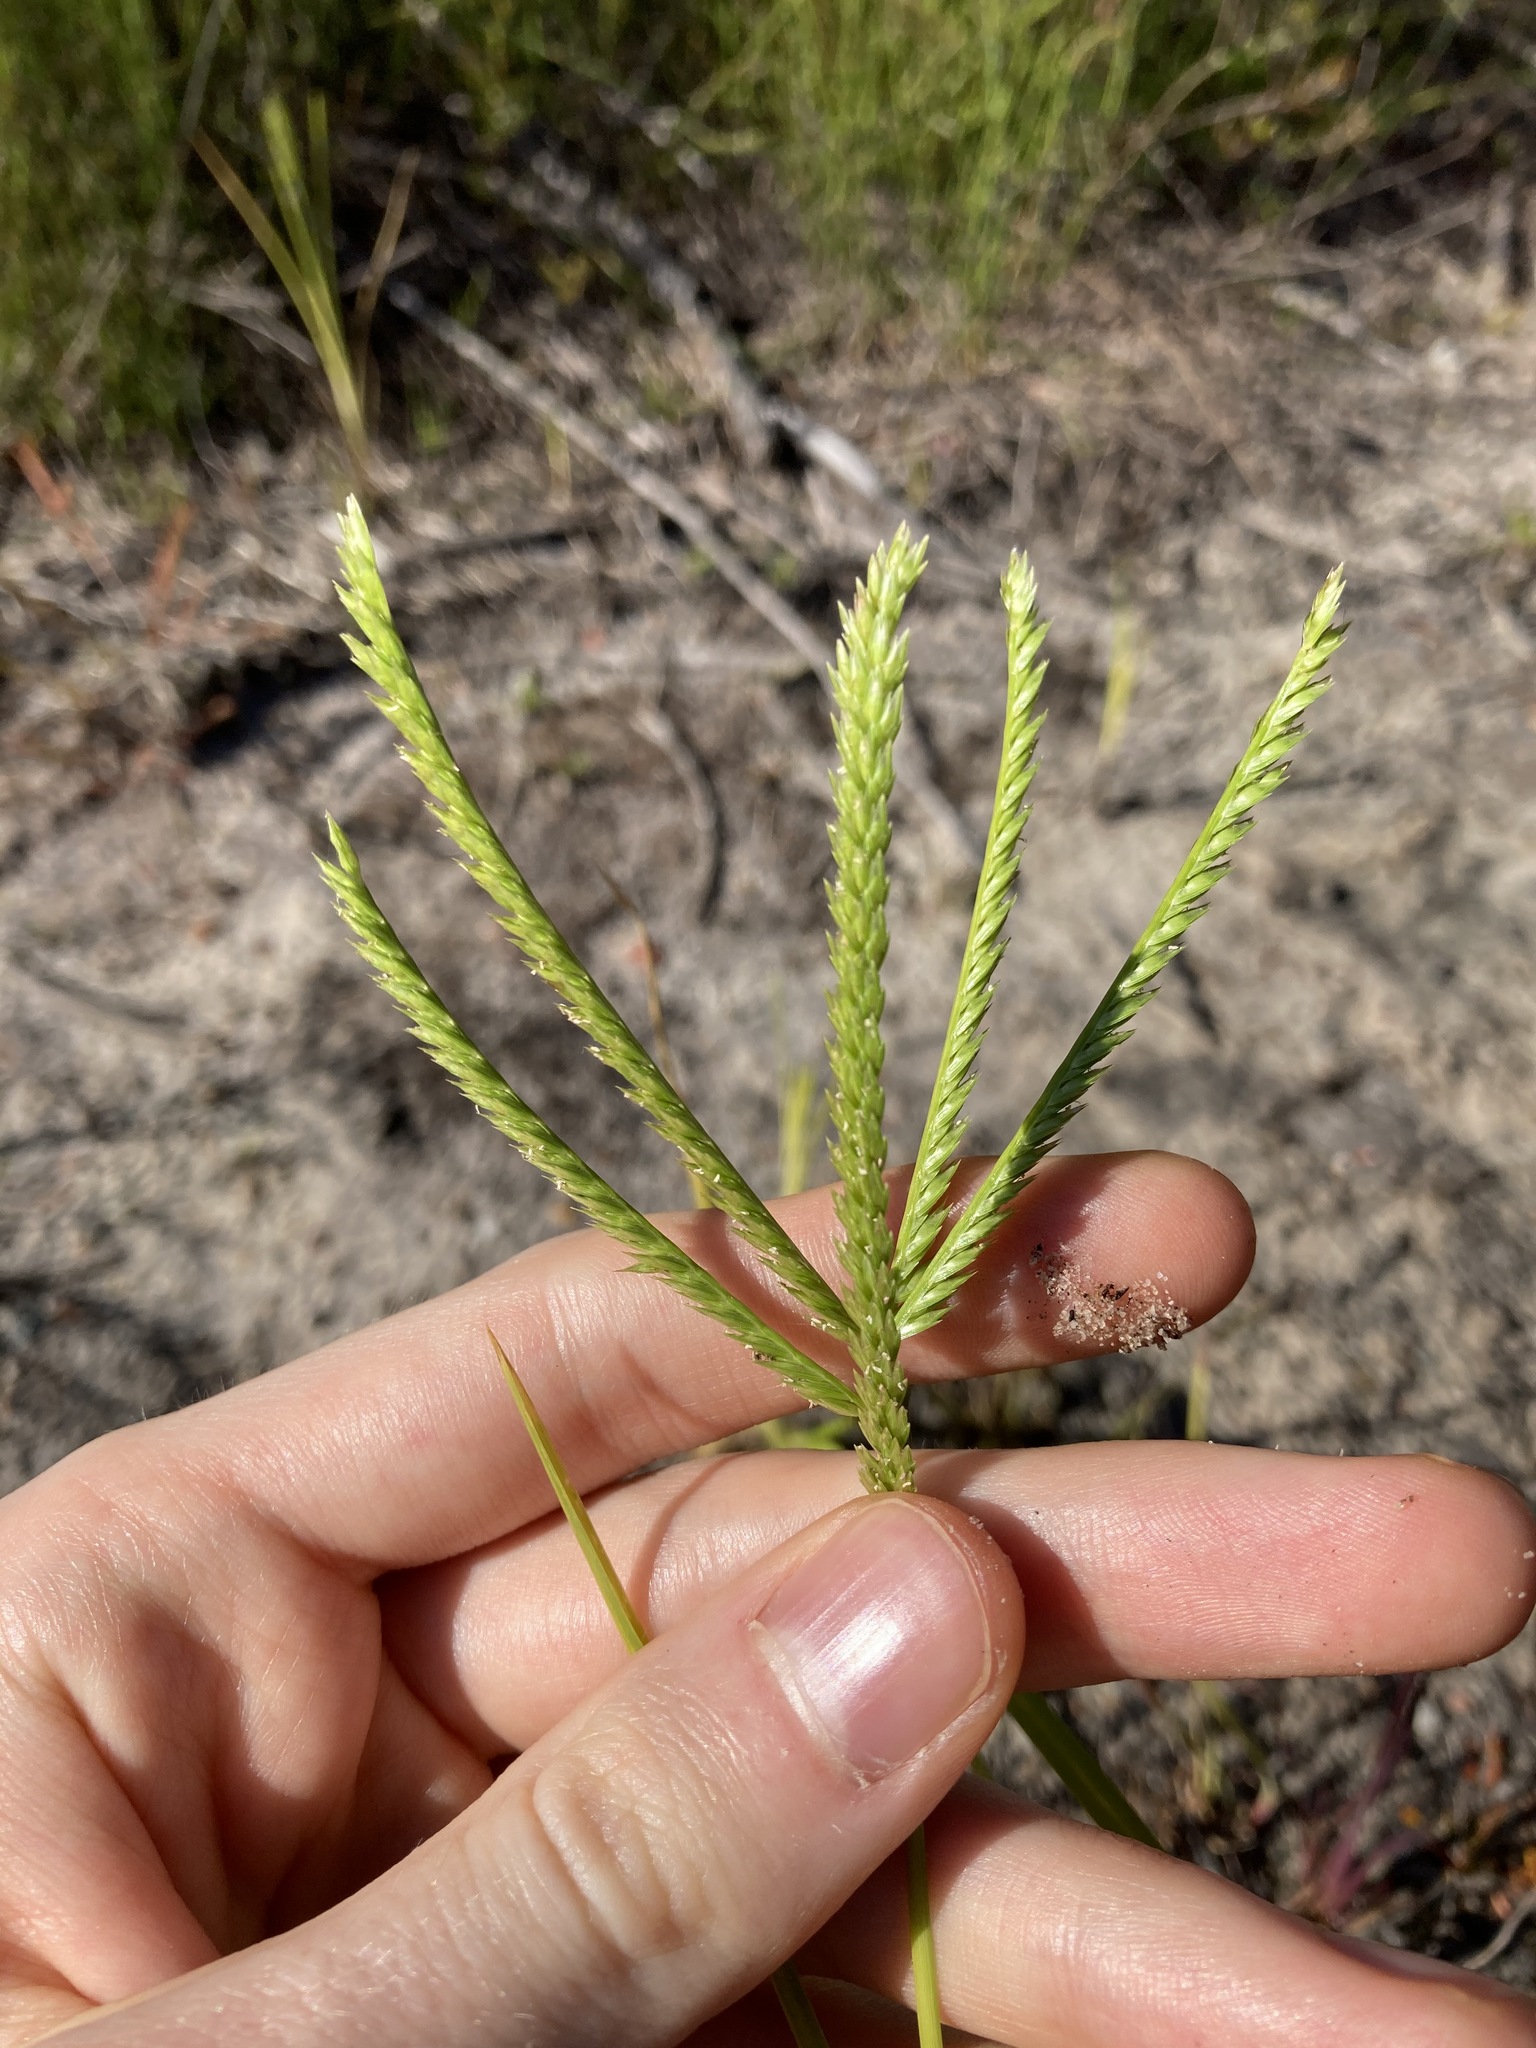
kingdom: Plantae
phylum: Tracheophyta
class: Liliopsida
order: Poales
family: Poaceae
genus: Eleusine
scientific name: Eleusine indica
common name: Yard-grass
